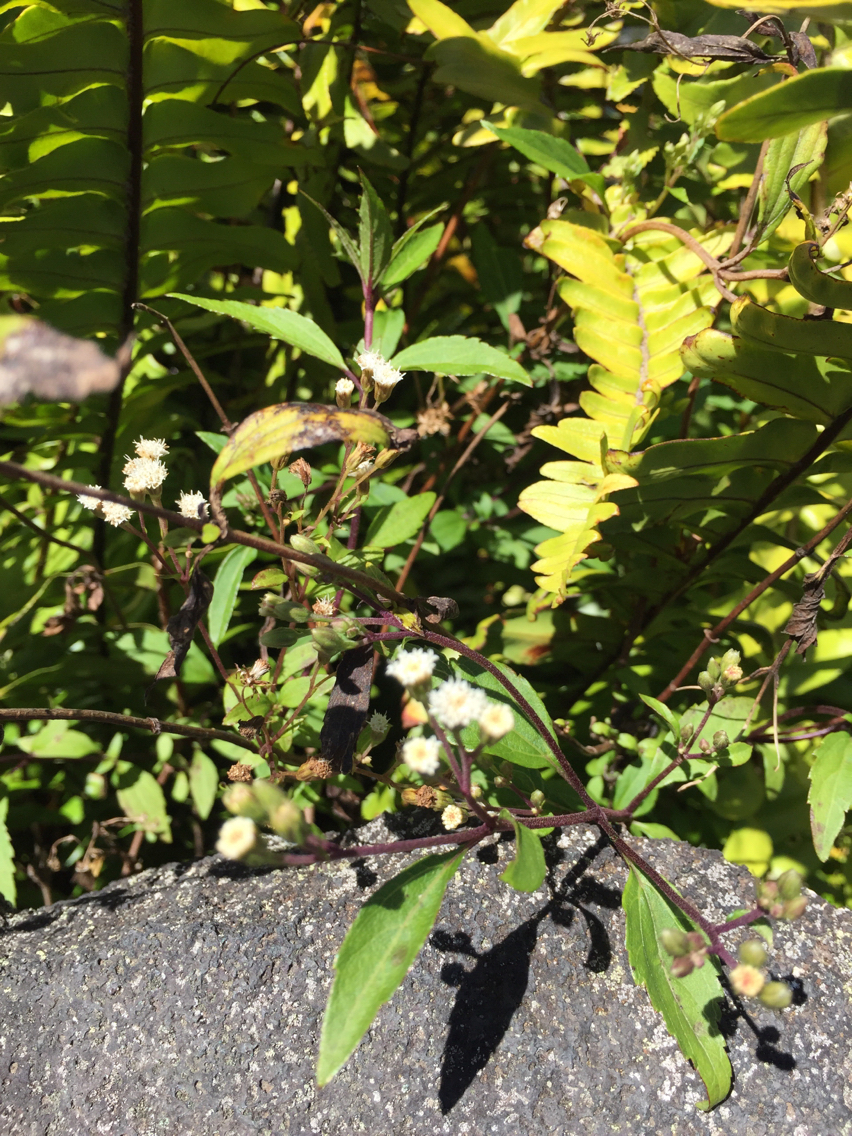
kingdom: Plantae
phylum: Tracheophyta
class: Magnoliopsida
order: Asterales
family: Asteraceae
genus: Ageratina
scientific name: Ageratina riparia
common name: Creeping croftonweed
